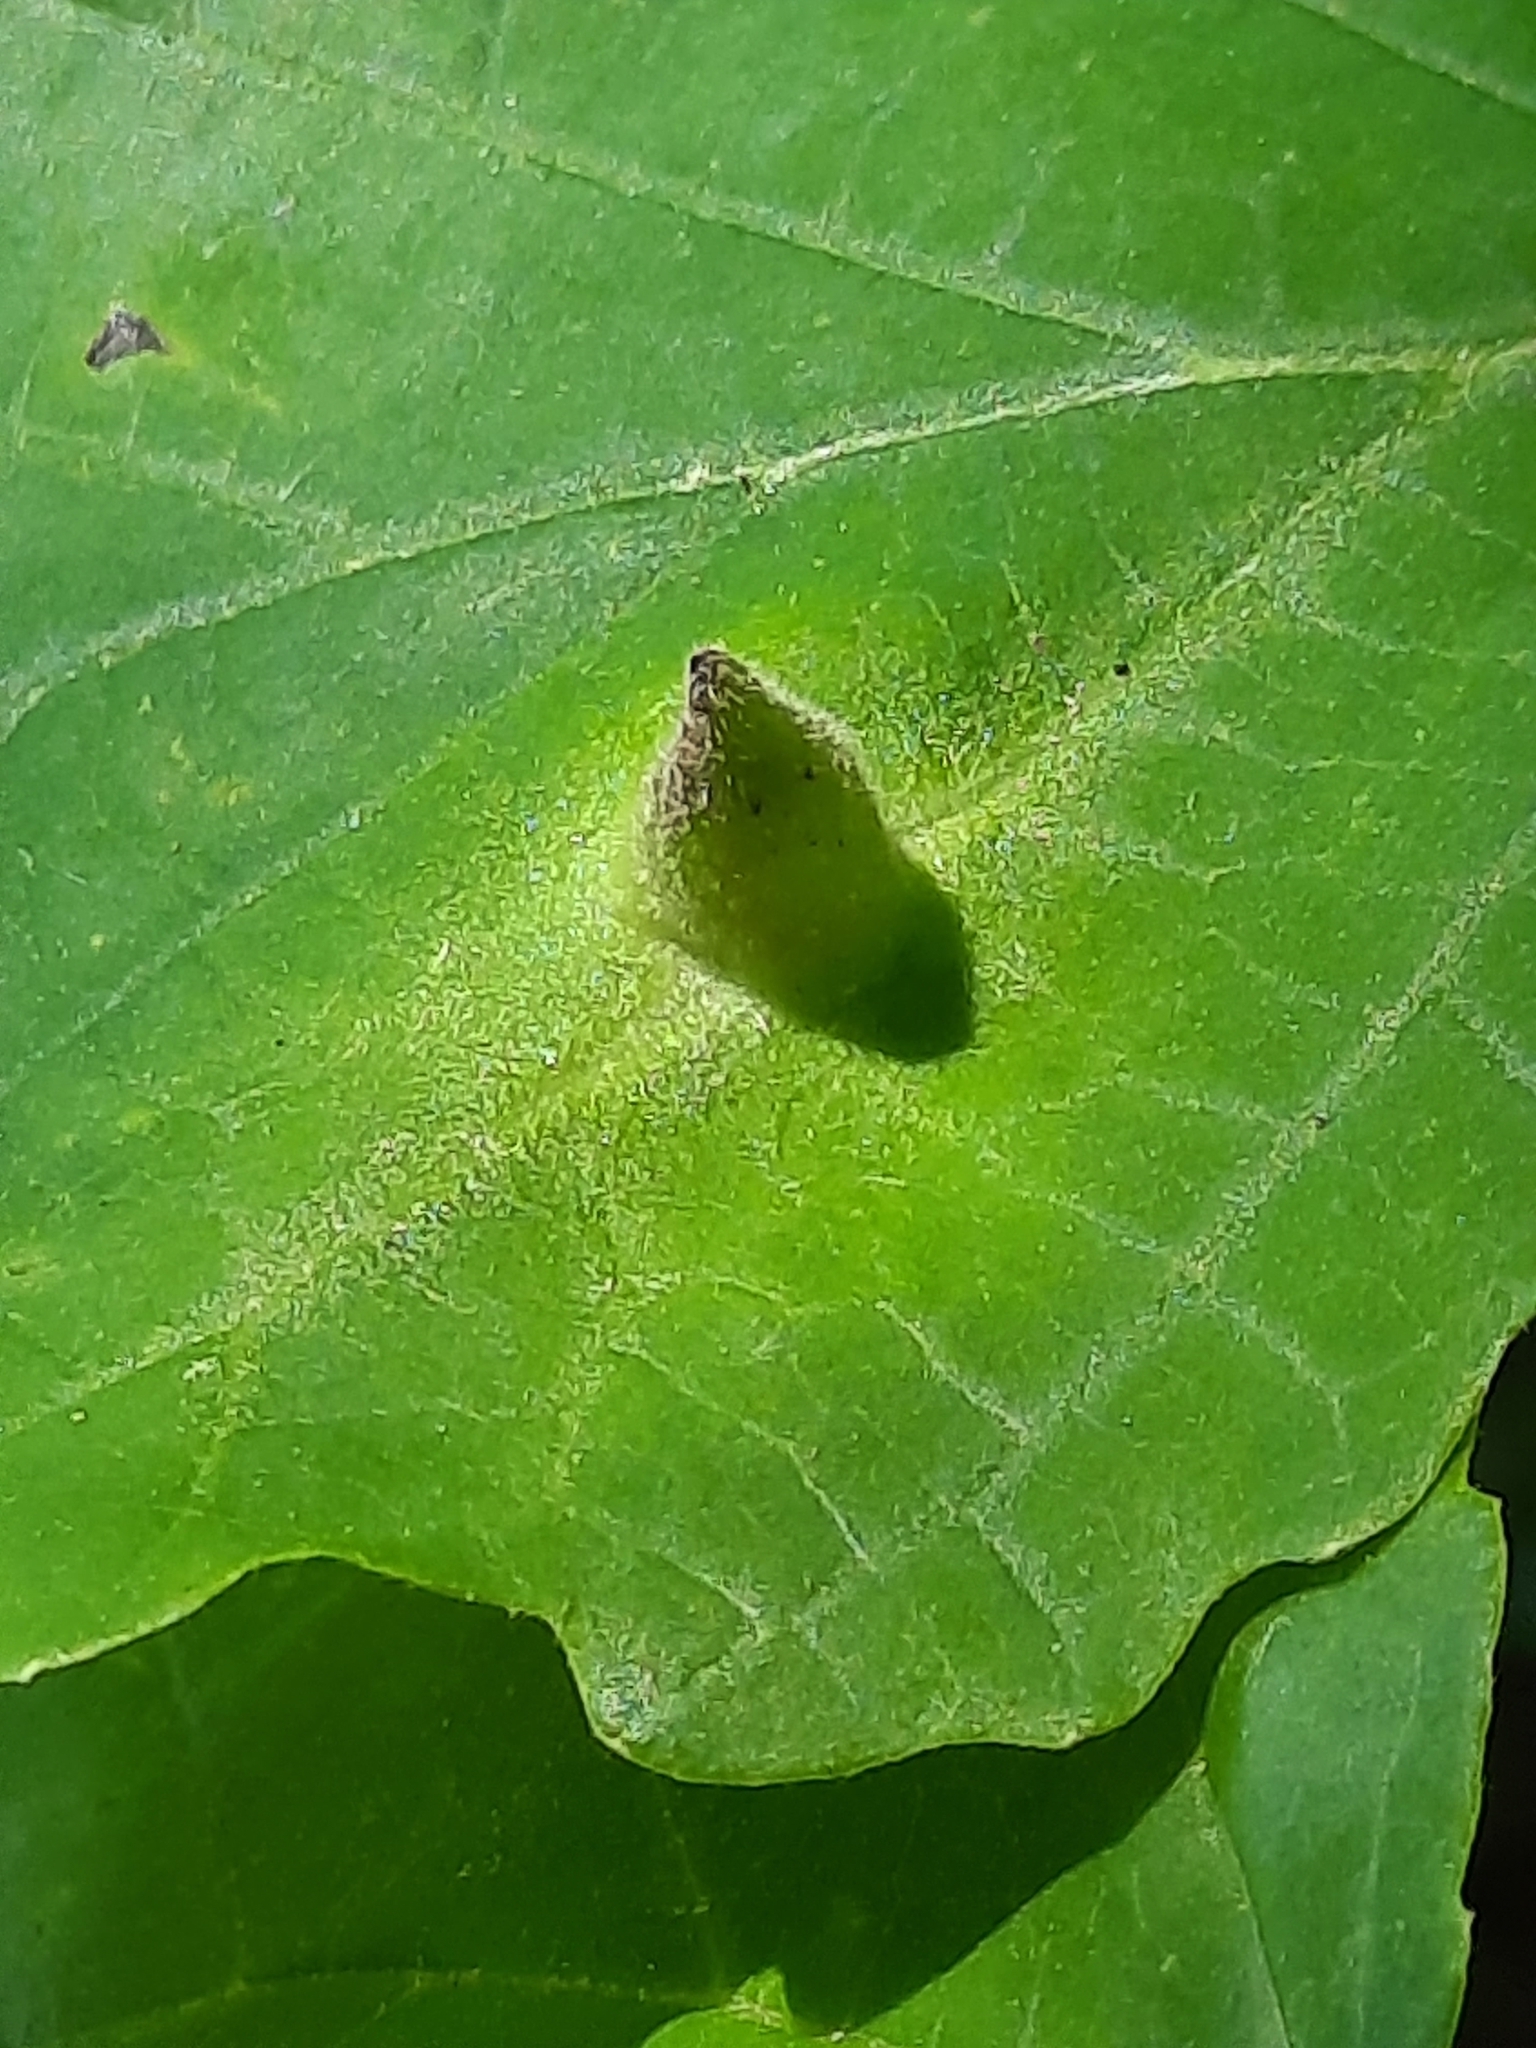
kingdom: Plantae
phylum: Tracheophyta
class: Magnoliopsida
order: Saxifragales
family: Hamamelidaceae
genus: Hamamelis
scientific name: Hamamelis virginiana
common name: Witch-hazel
